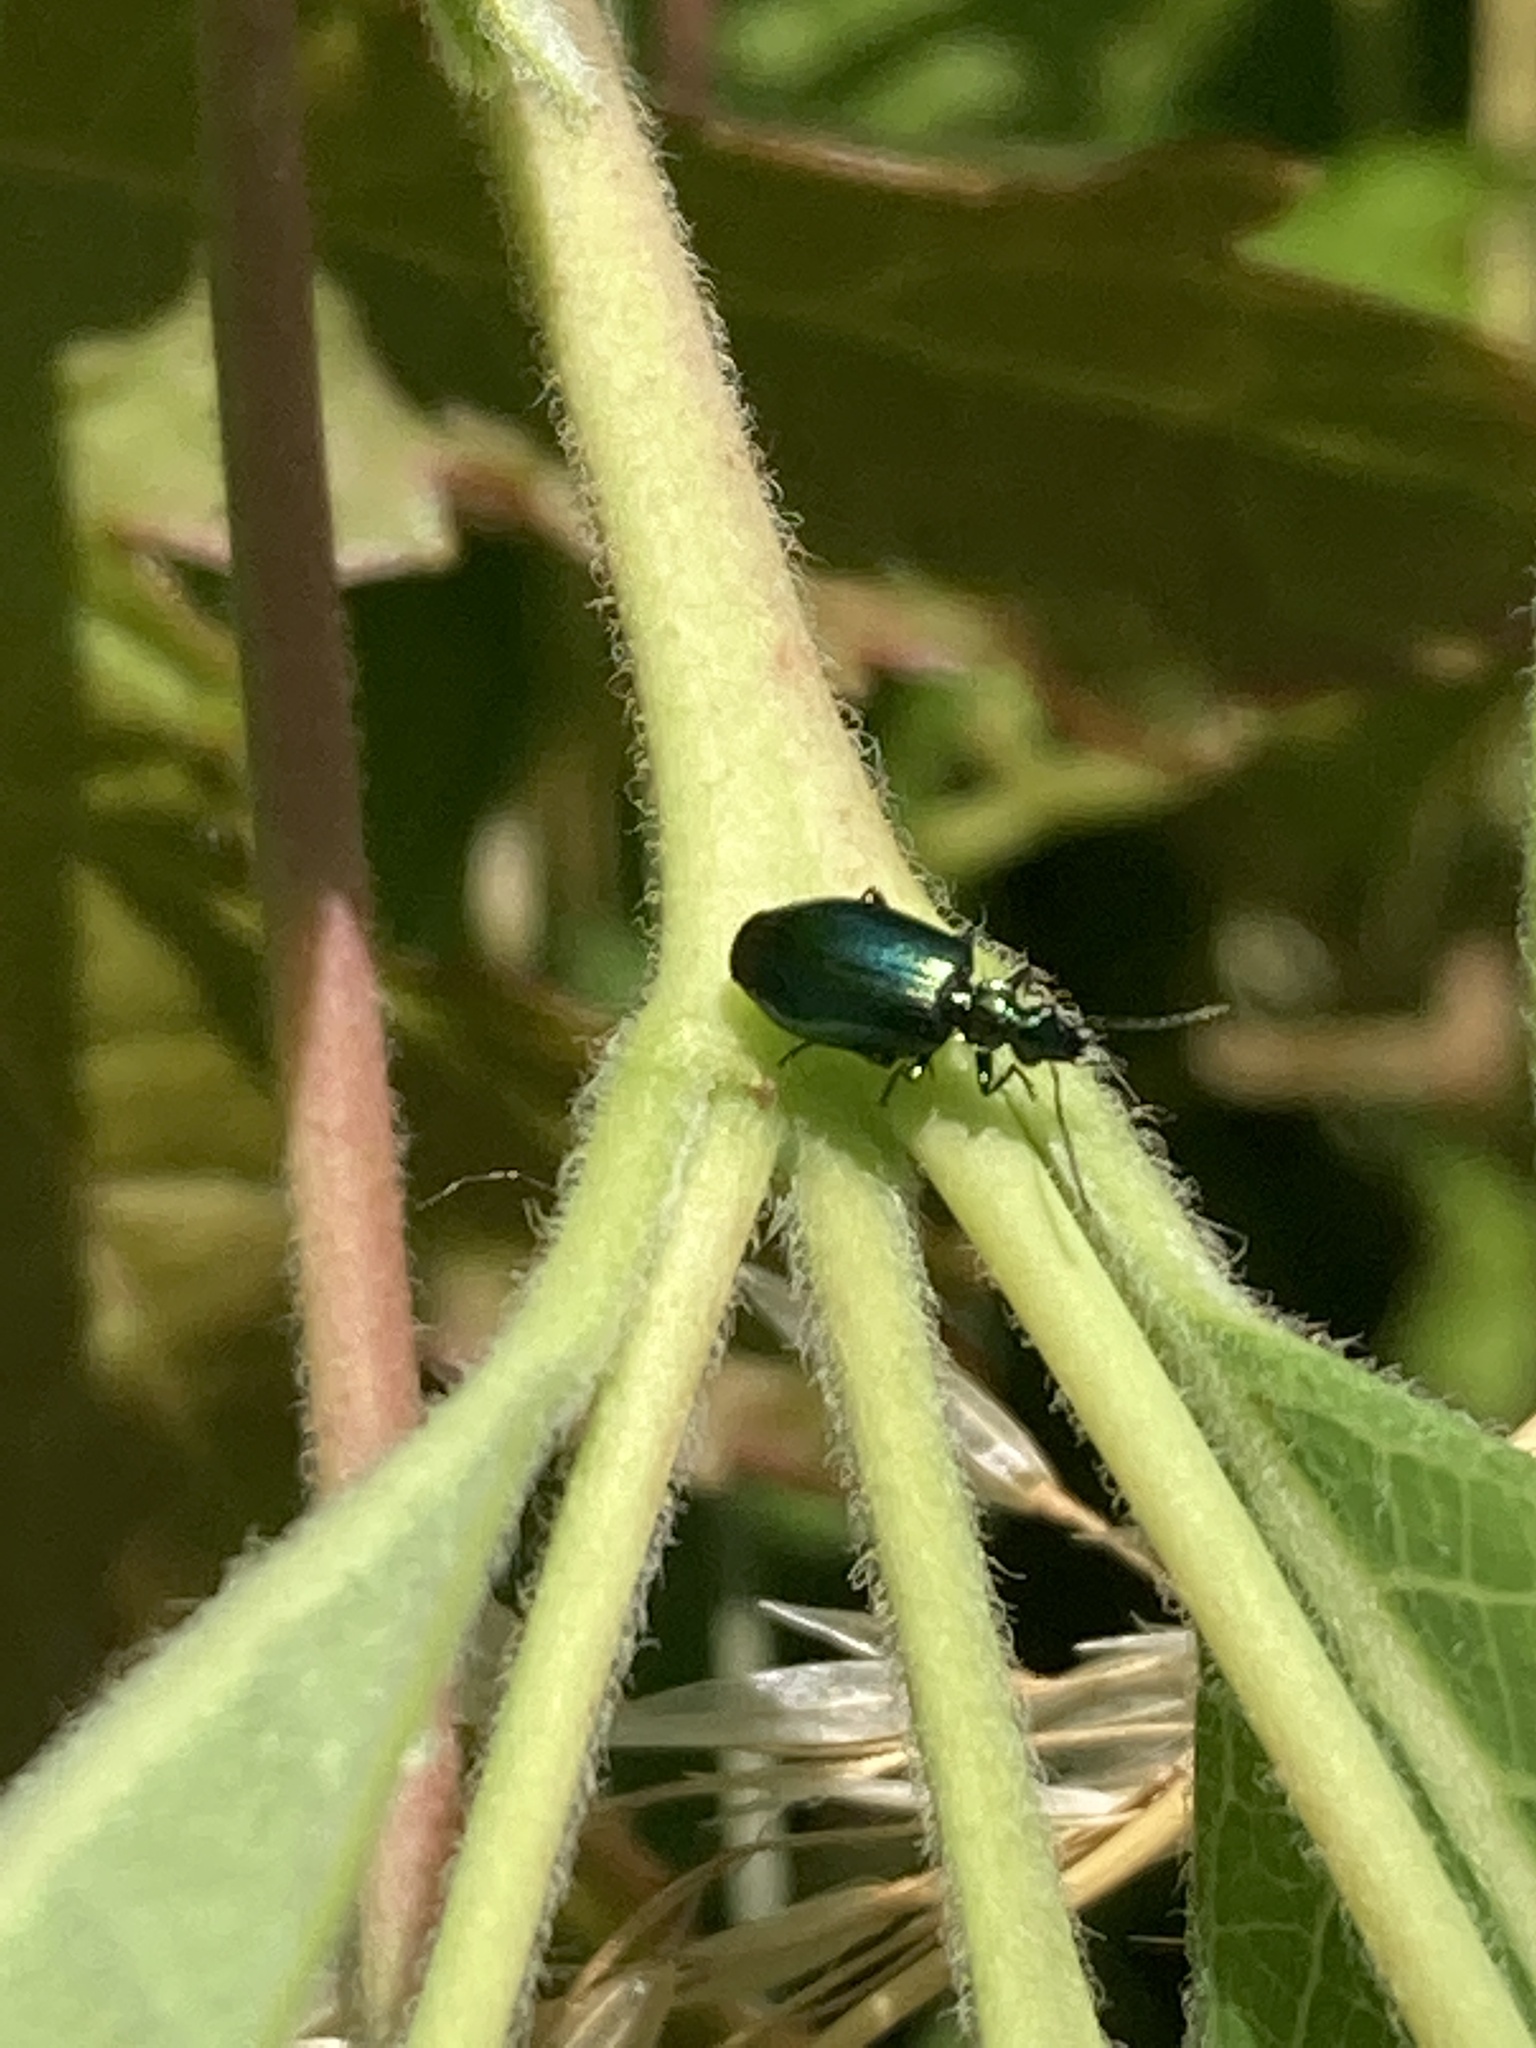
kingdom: Animalia
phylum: Arthropoda
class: Insecta
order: Coleoptera
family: Carabidae
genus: Lebia
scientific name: Lebia viridis
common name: Flower lebia beetle
